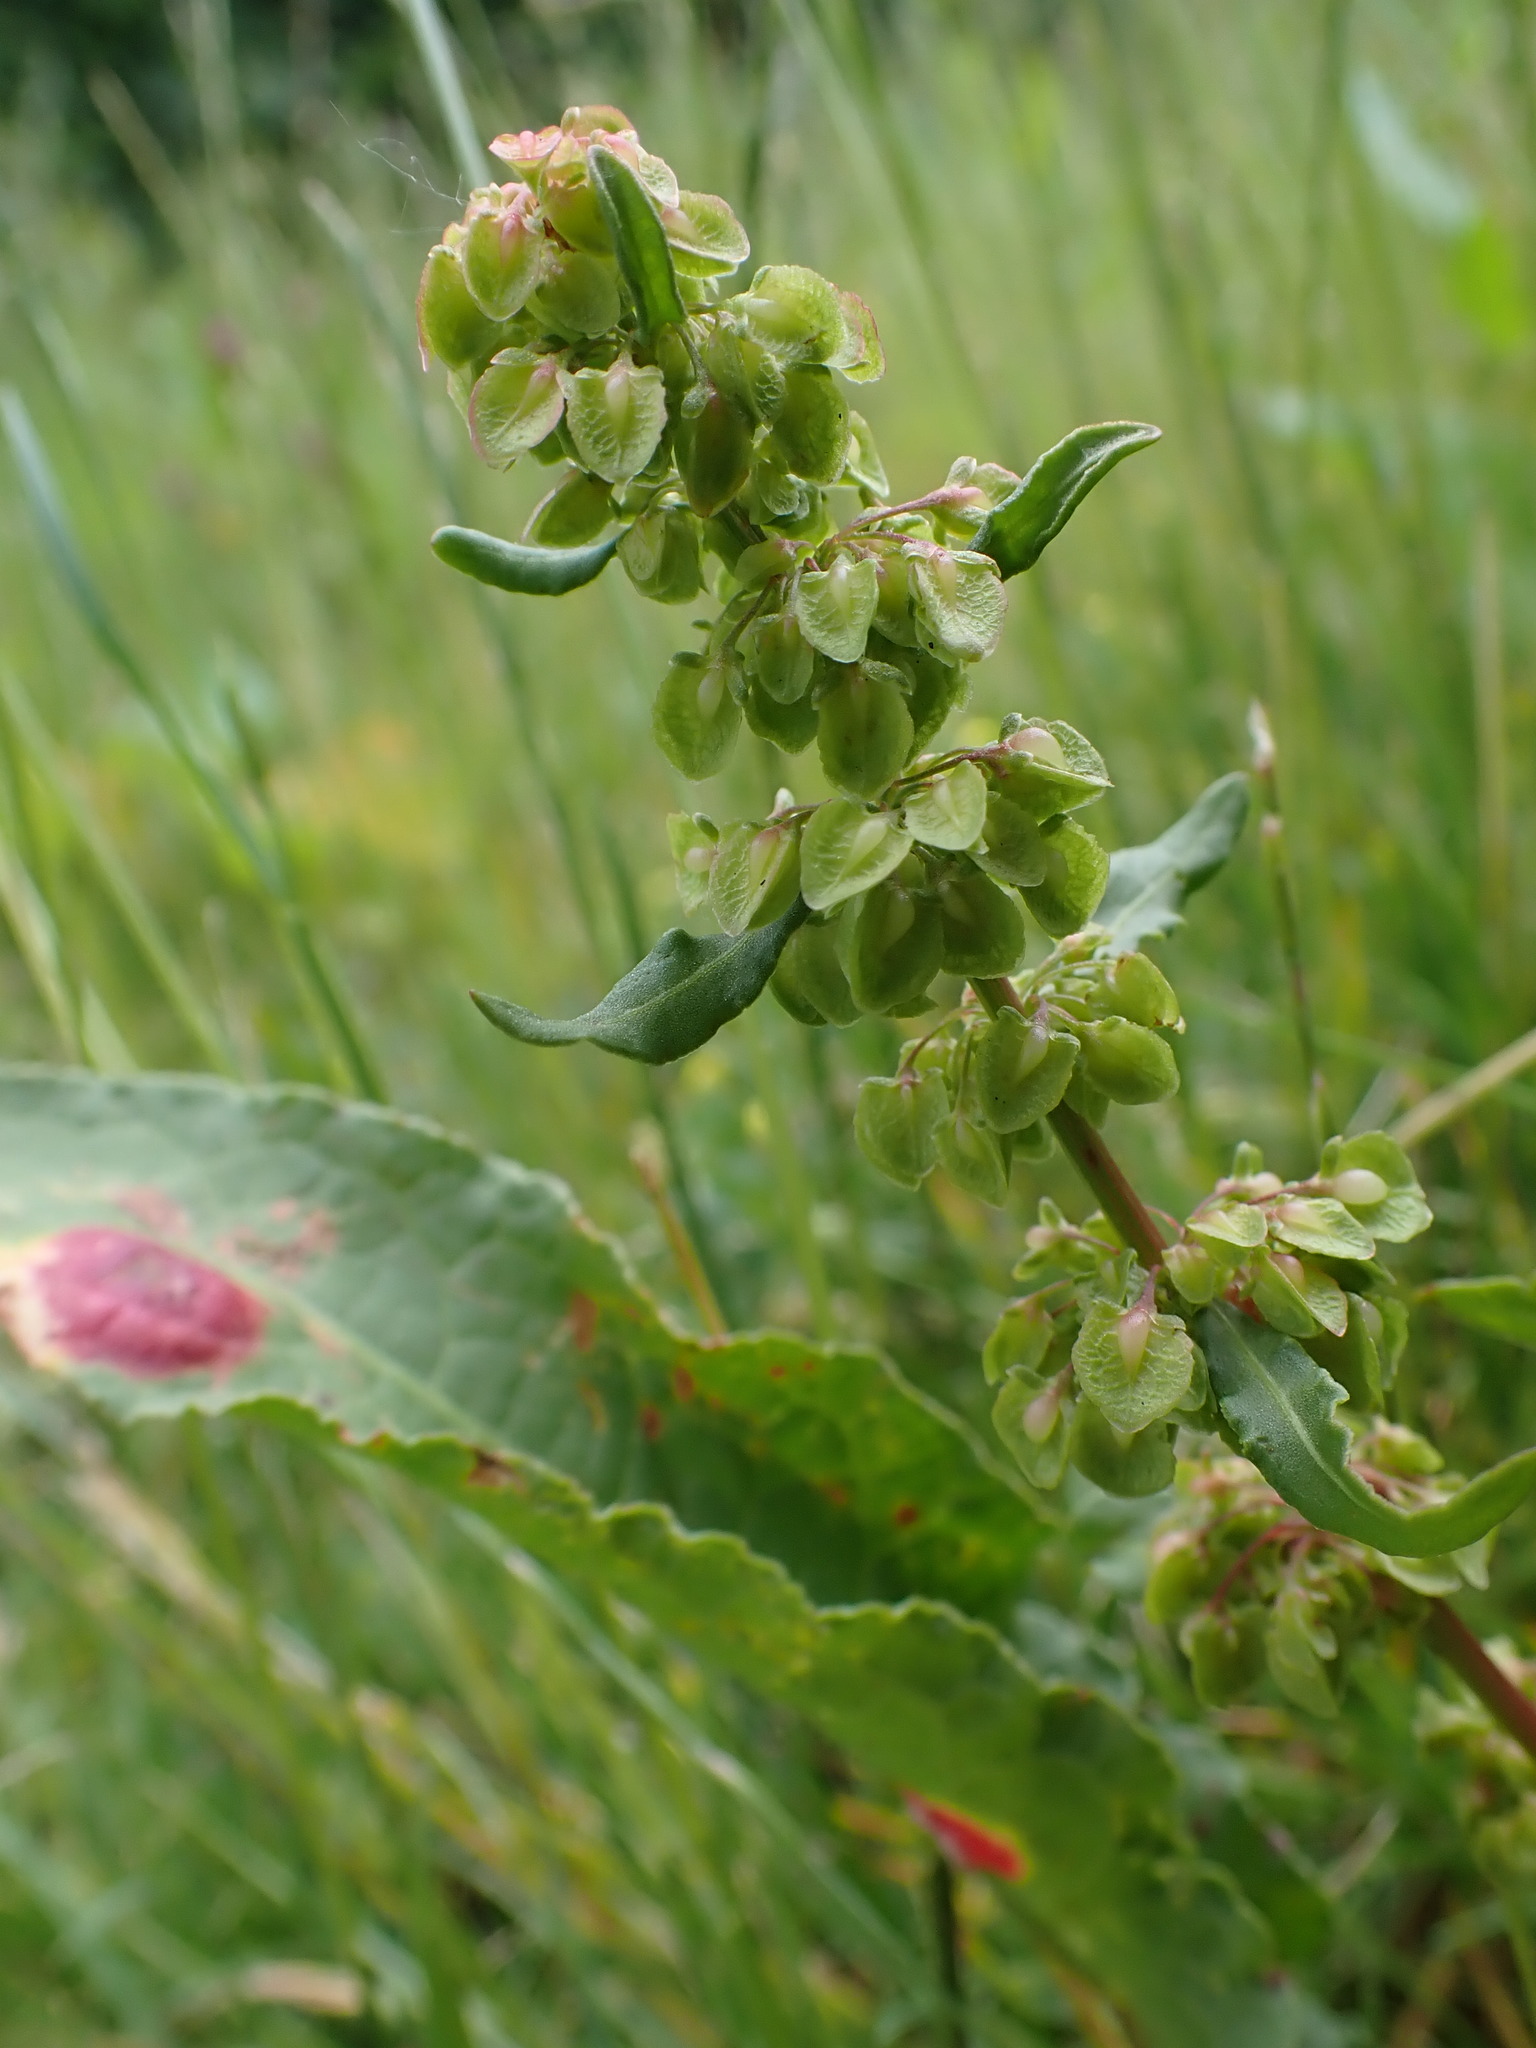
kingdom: Fungi
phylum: Basidiomycota
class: Pucciniomycetes
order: Pucciniales
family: Pucciniaceae
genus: Puccinia
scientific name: Puccinia phragmitis
